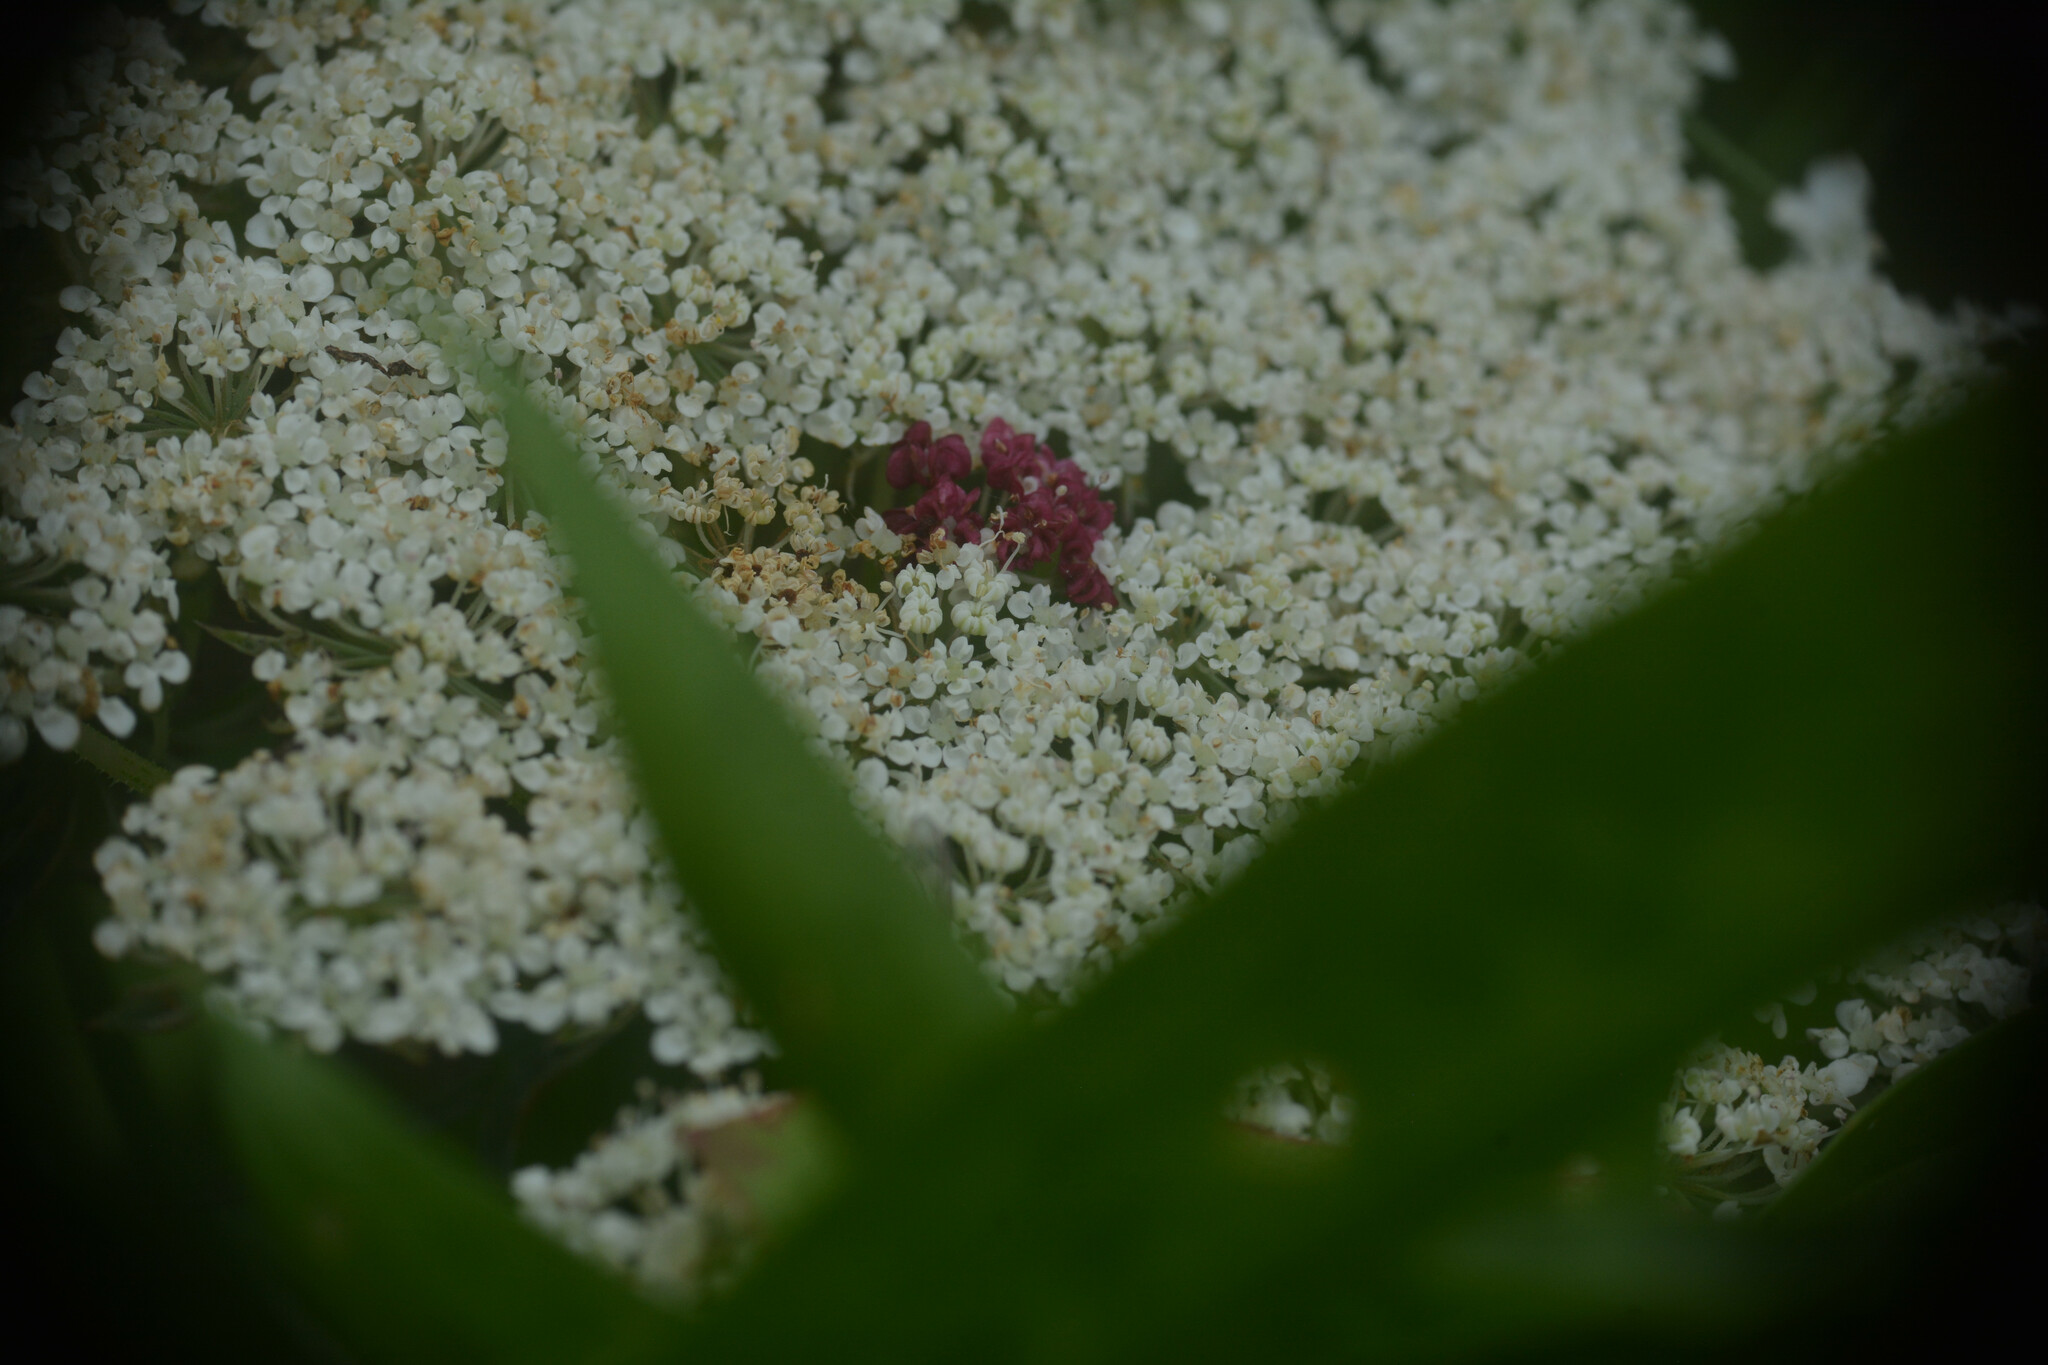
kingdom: Plantae
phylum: Tracheophyta
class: Magnoliopsida
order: Apiales
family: Apiaceae
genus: Daucus
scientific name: Daucus carota
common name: Wild carrot
